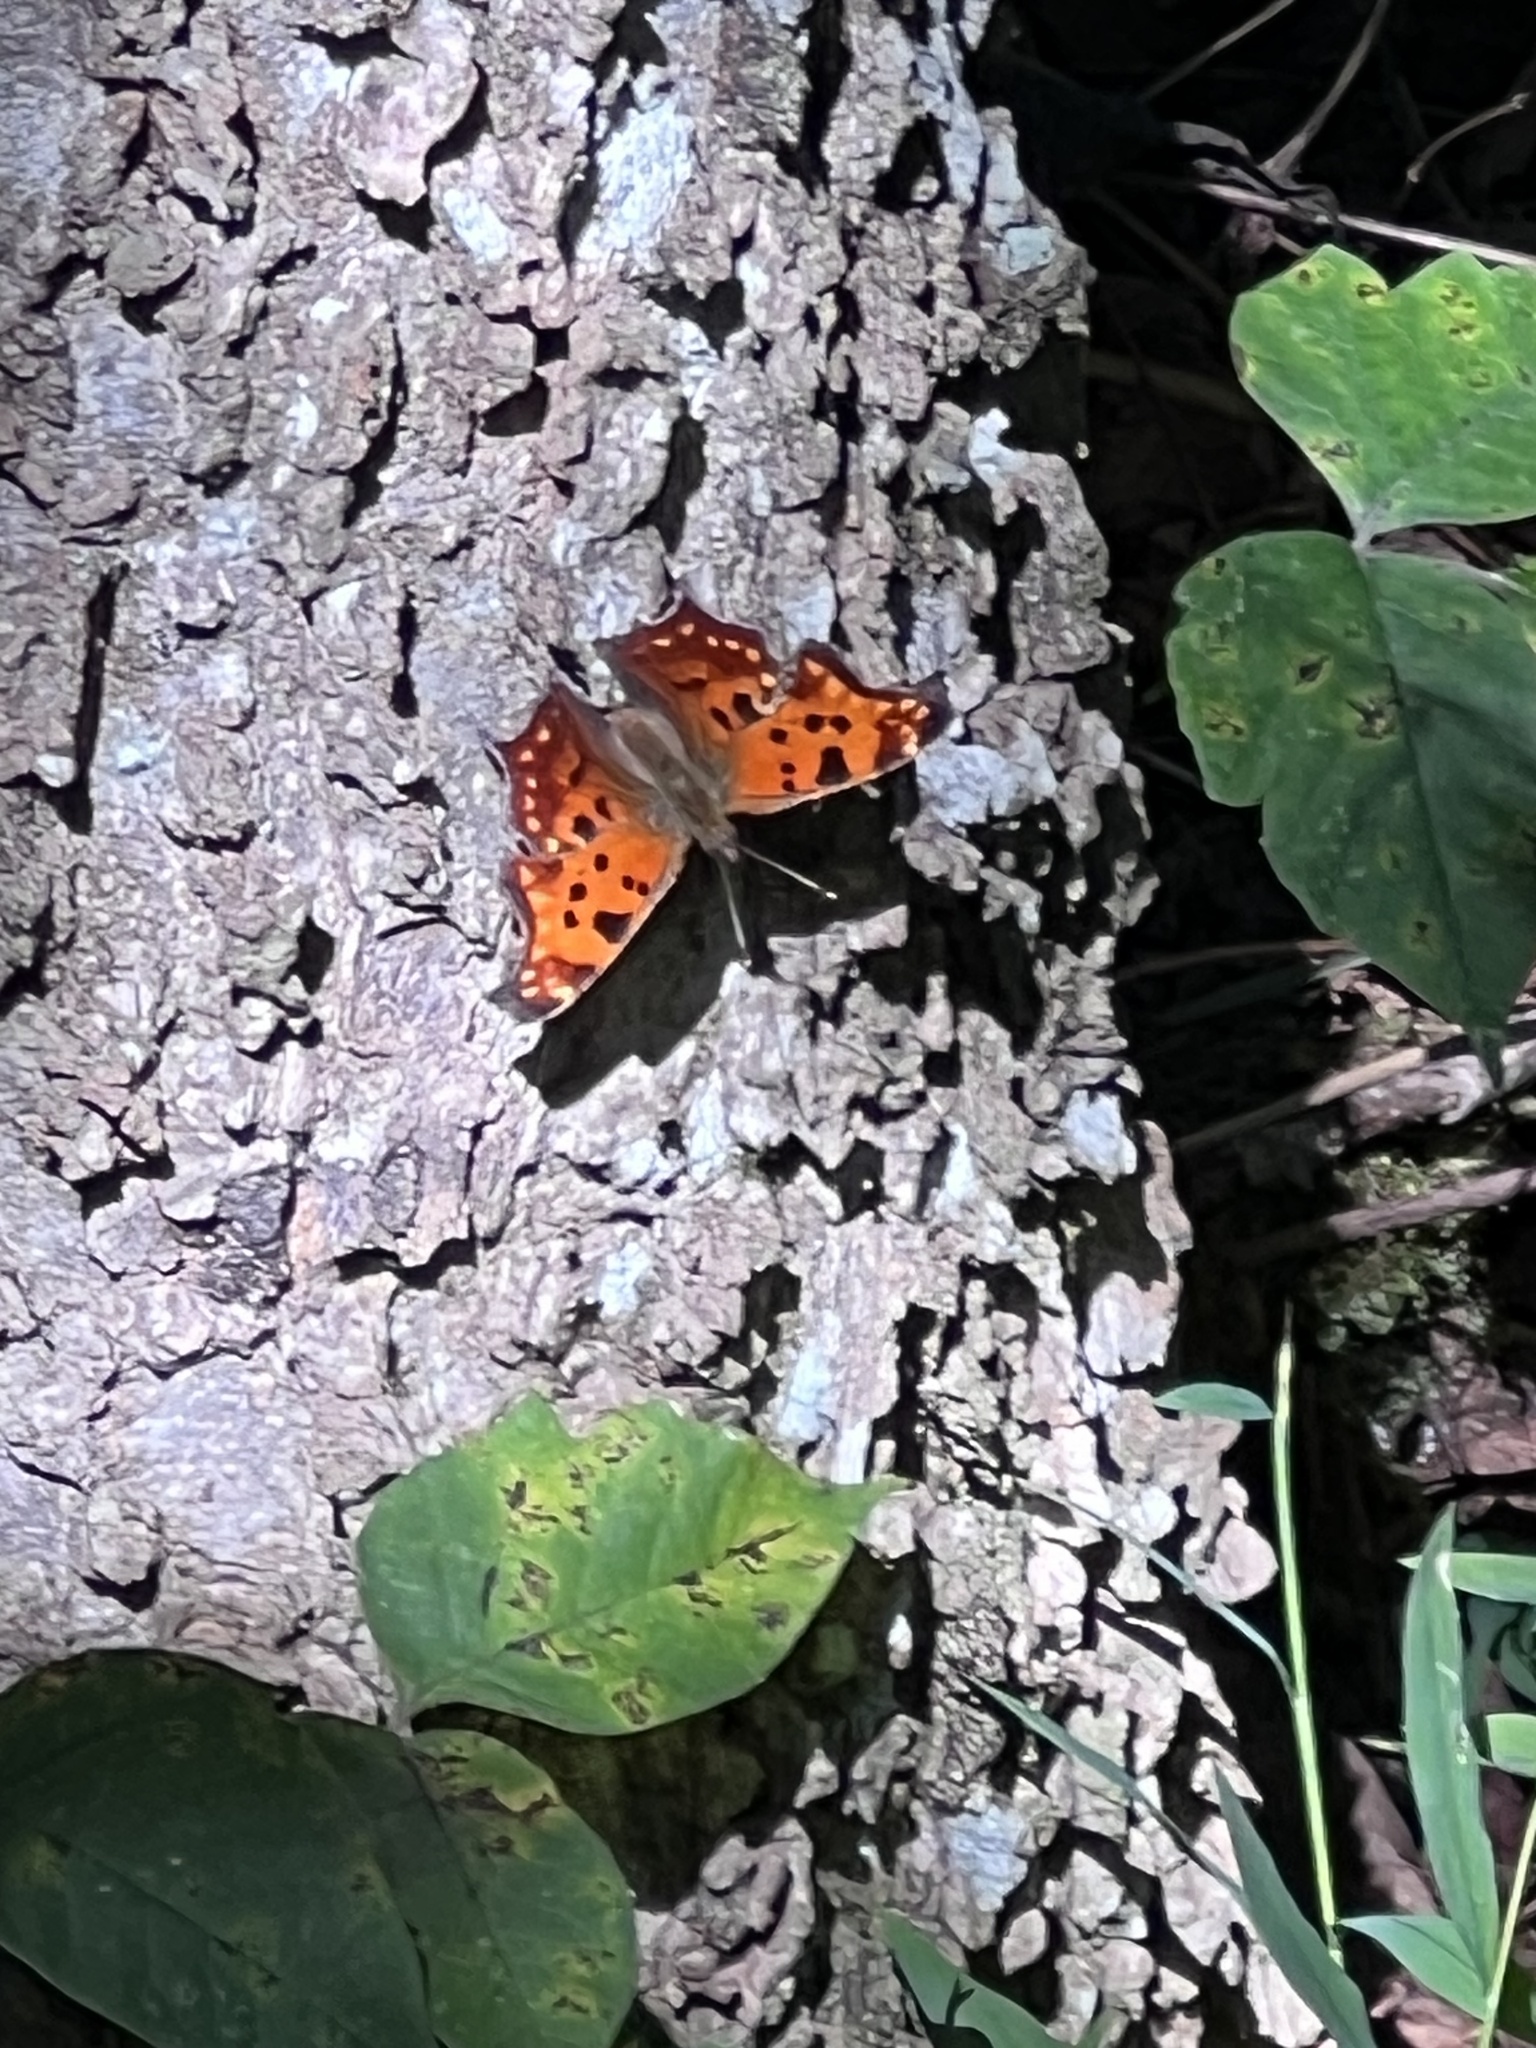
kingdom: Animalia
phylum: Arthropoda
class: Insecta
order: Lepidoptera
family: Nymphalidae
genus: Polygonia
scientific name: Polygonia comma
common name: Eastern comma
